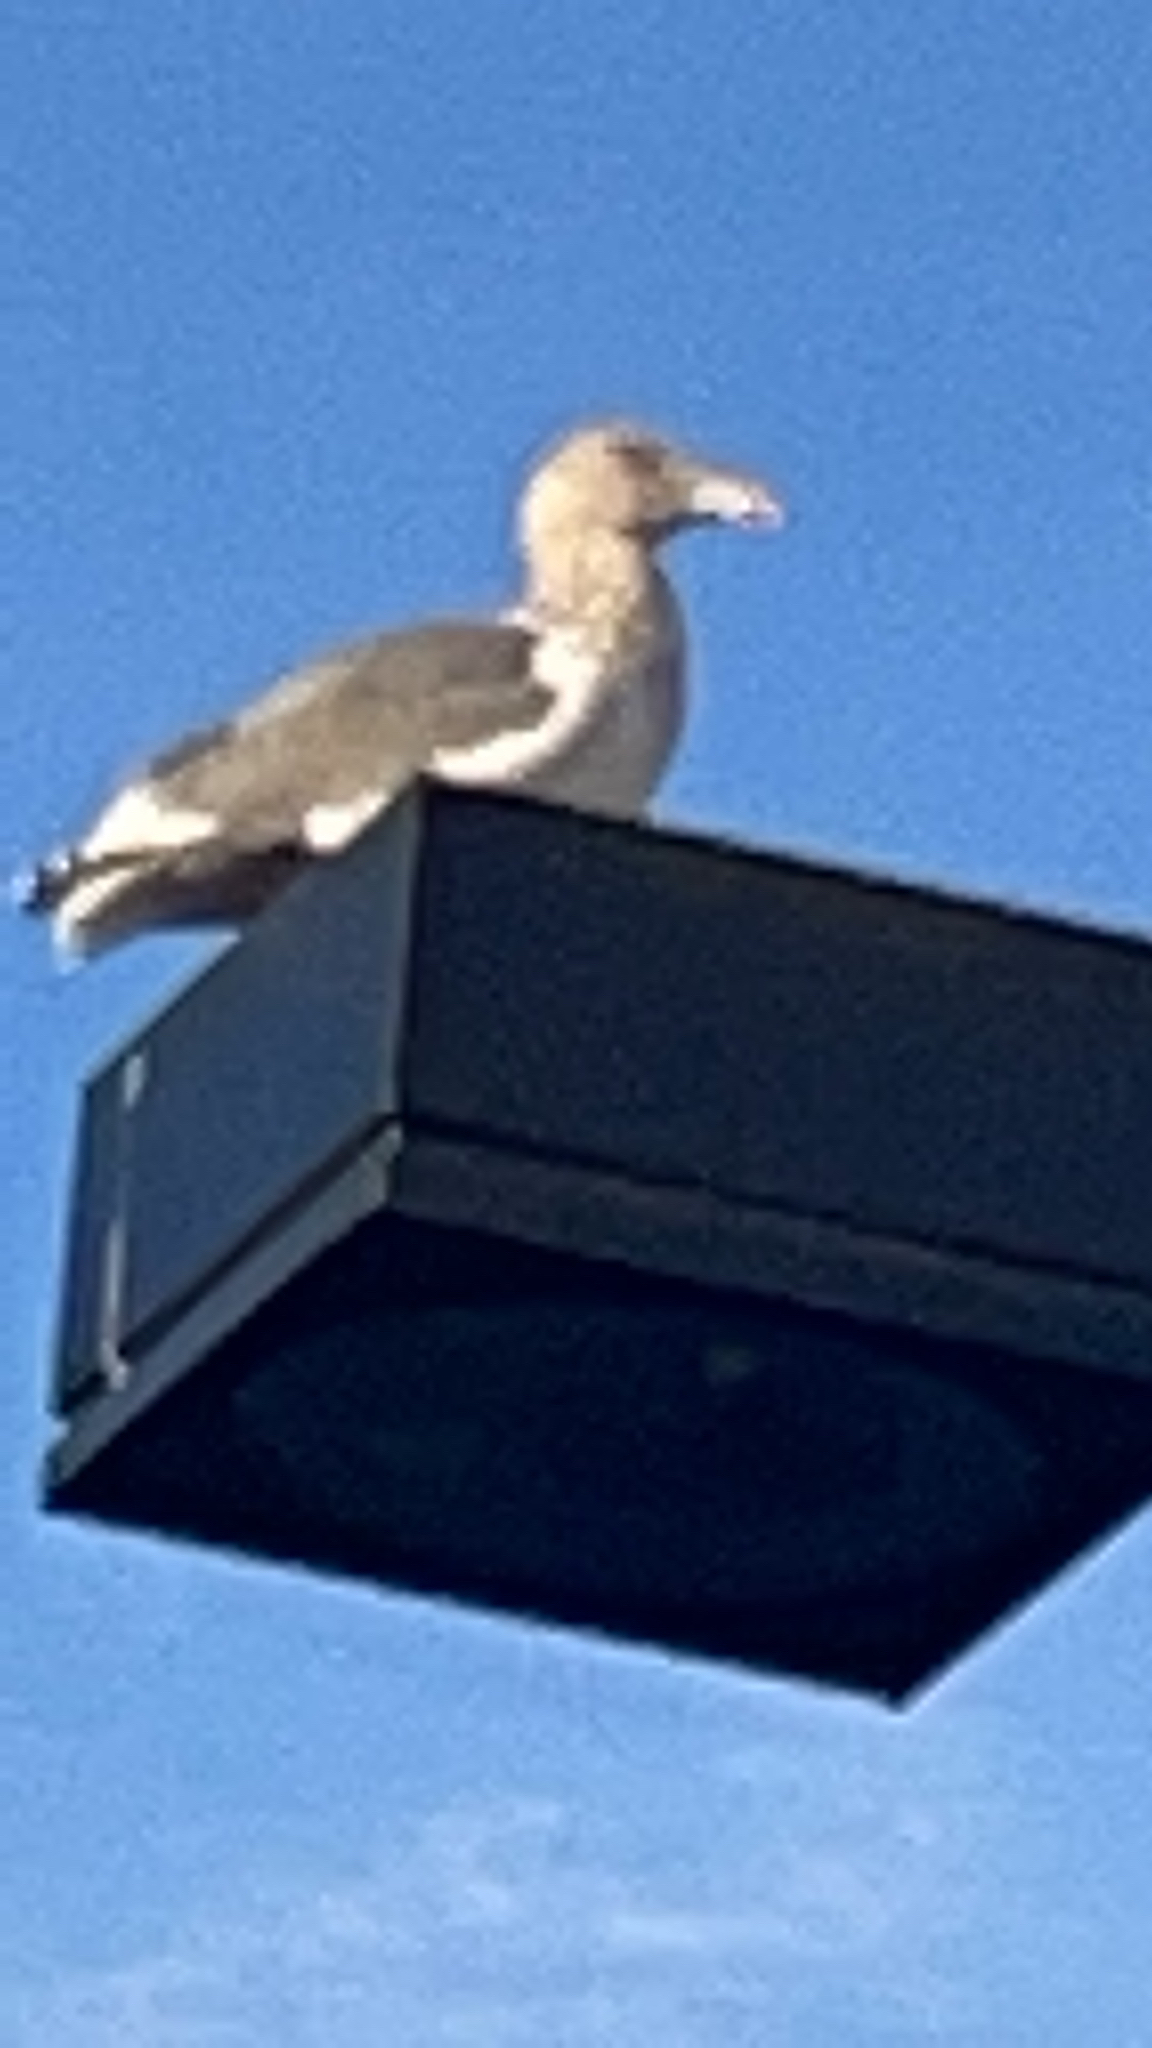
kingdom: Animalia
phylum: Chordata
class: Aves
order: Charadriiformes
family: Laridae
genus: Larus
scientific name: Larus
